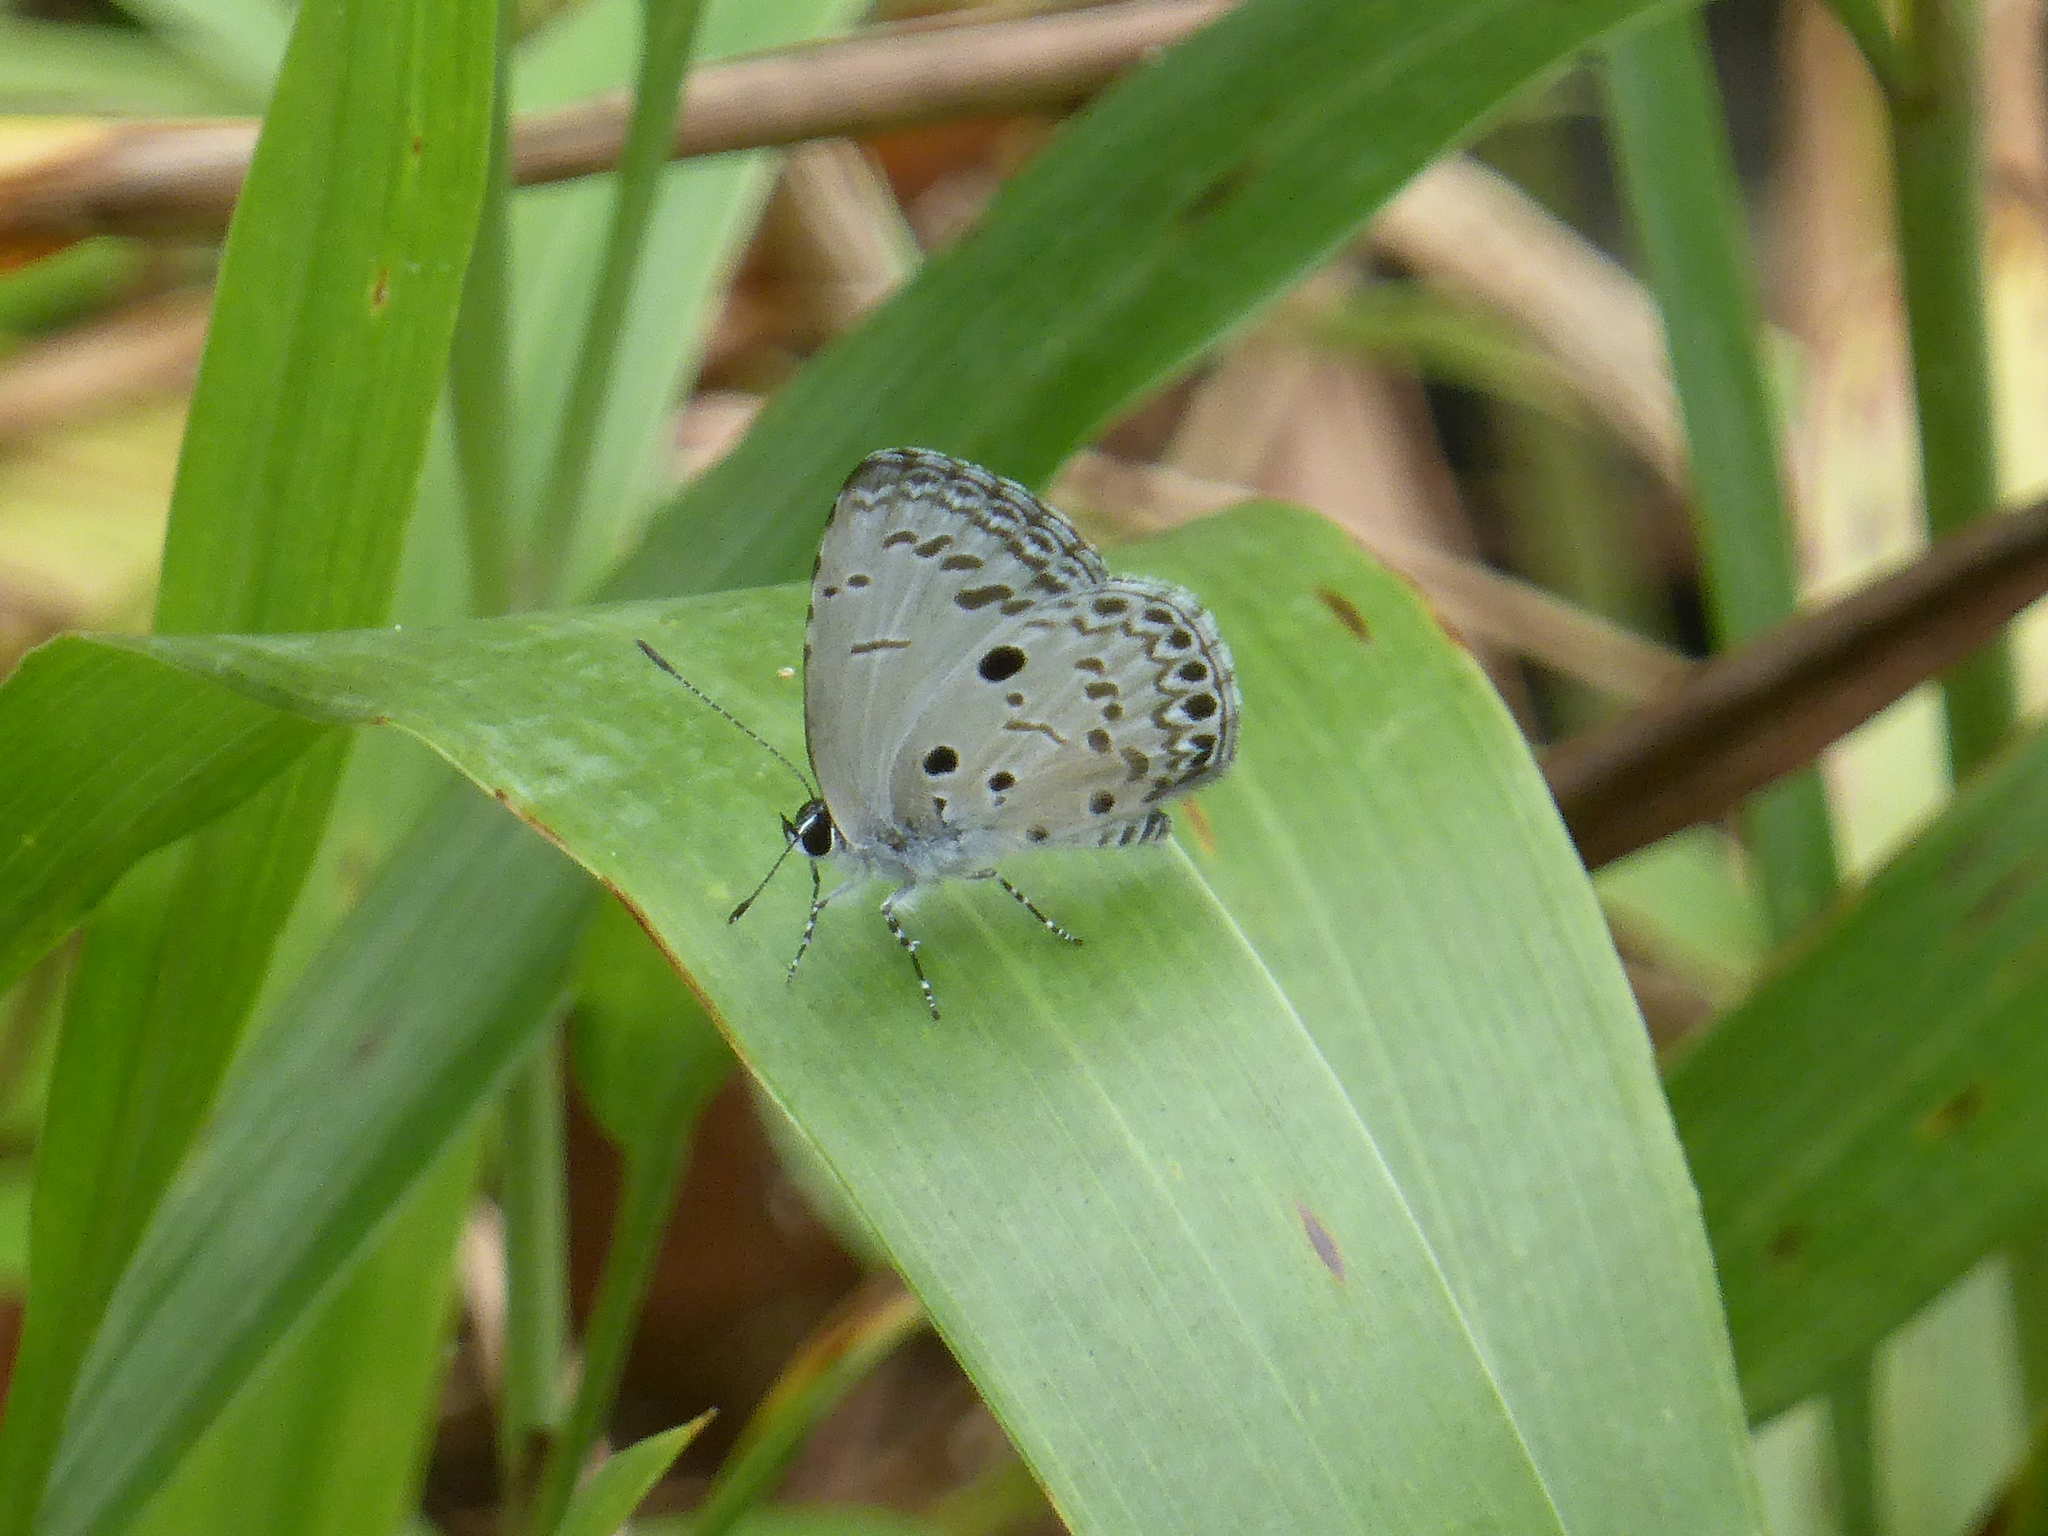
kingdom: Animalia
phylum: Arthropoda
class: Insecta
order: Lepidoptera
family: Lycaenidae
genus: Acytolepis
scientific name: Acytolepis puspa
